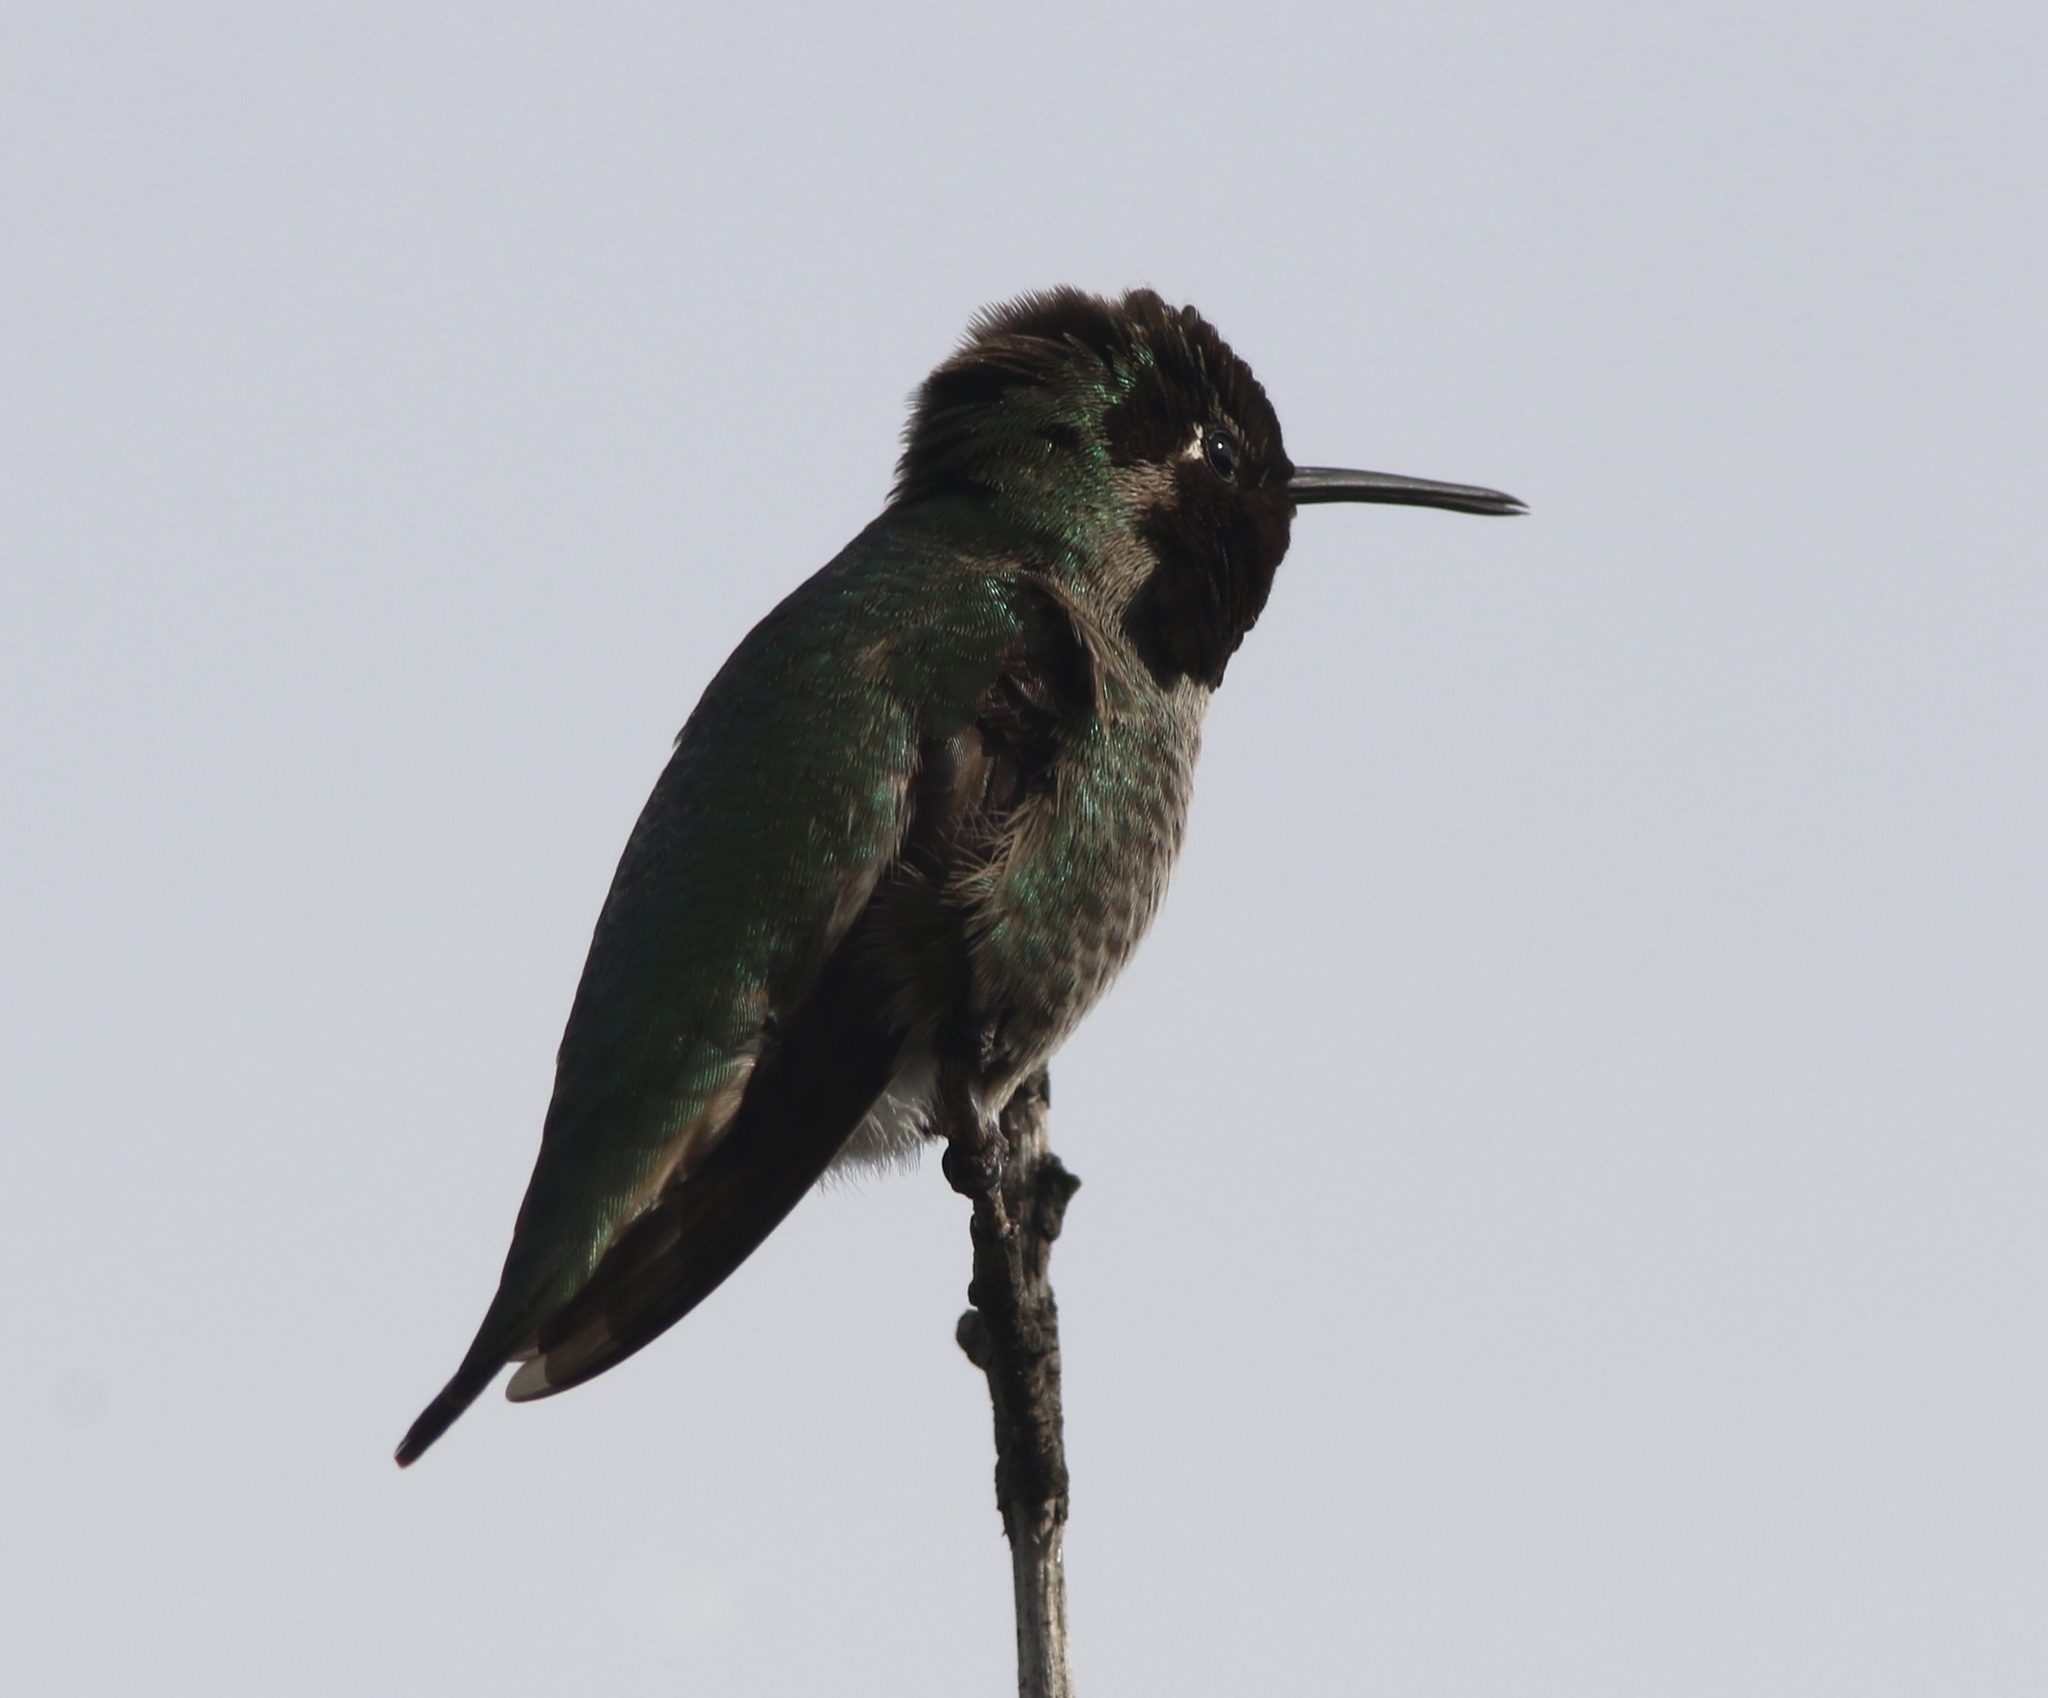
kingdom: Animalia
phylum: Chordata
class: Aves
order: Apodiformes
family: Trochilidae
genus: Calypte
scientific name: Calypte anna
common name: Anna's hummingbird
